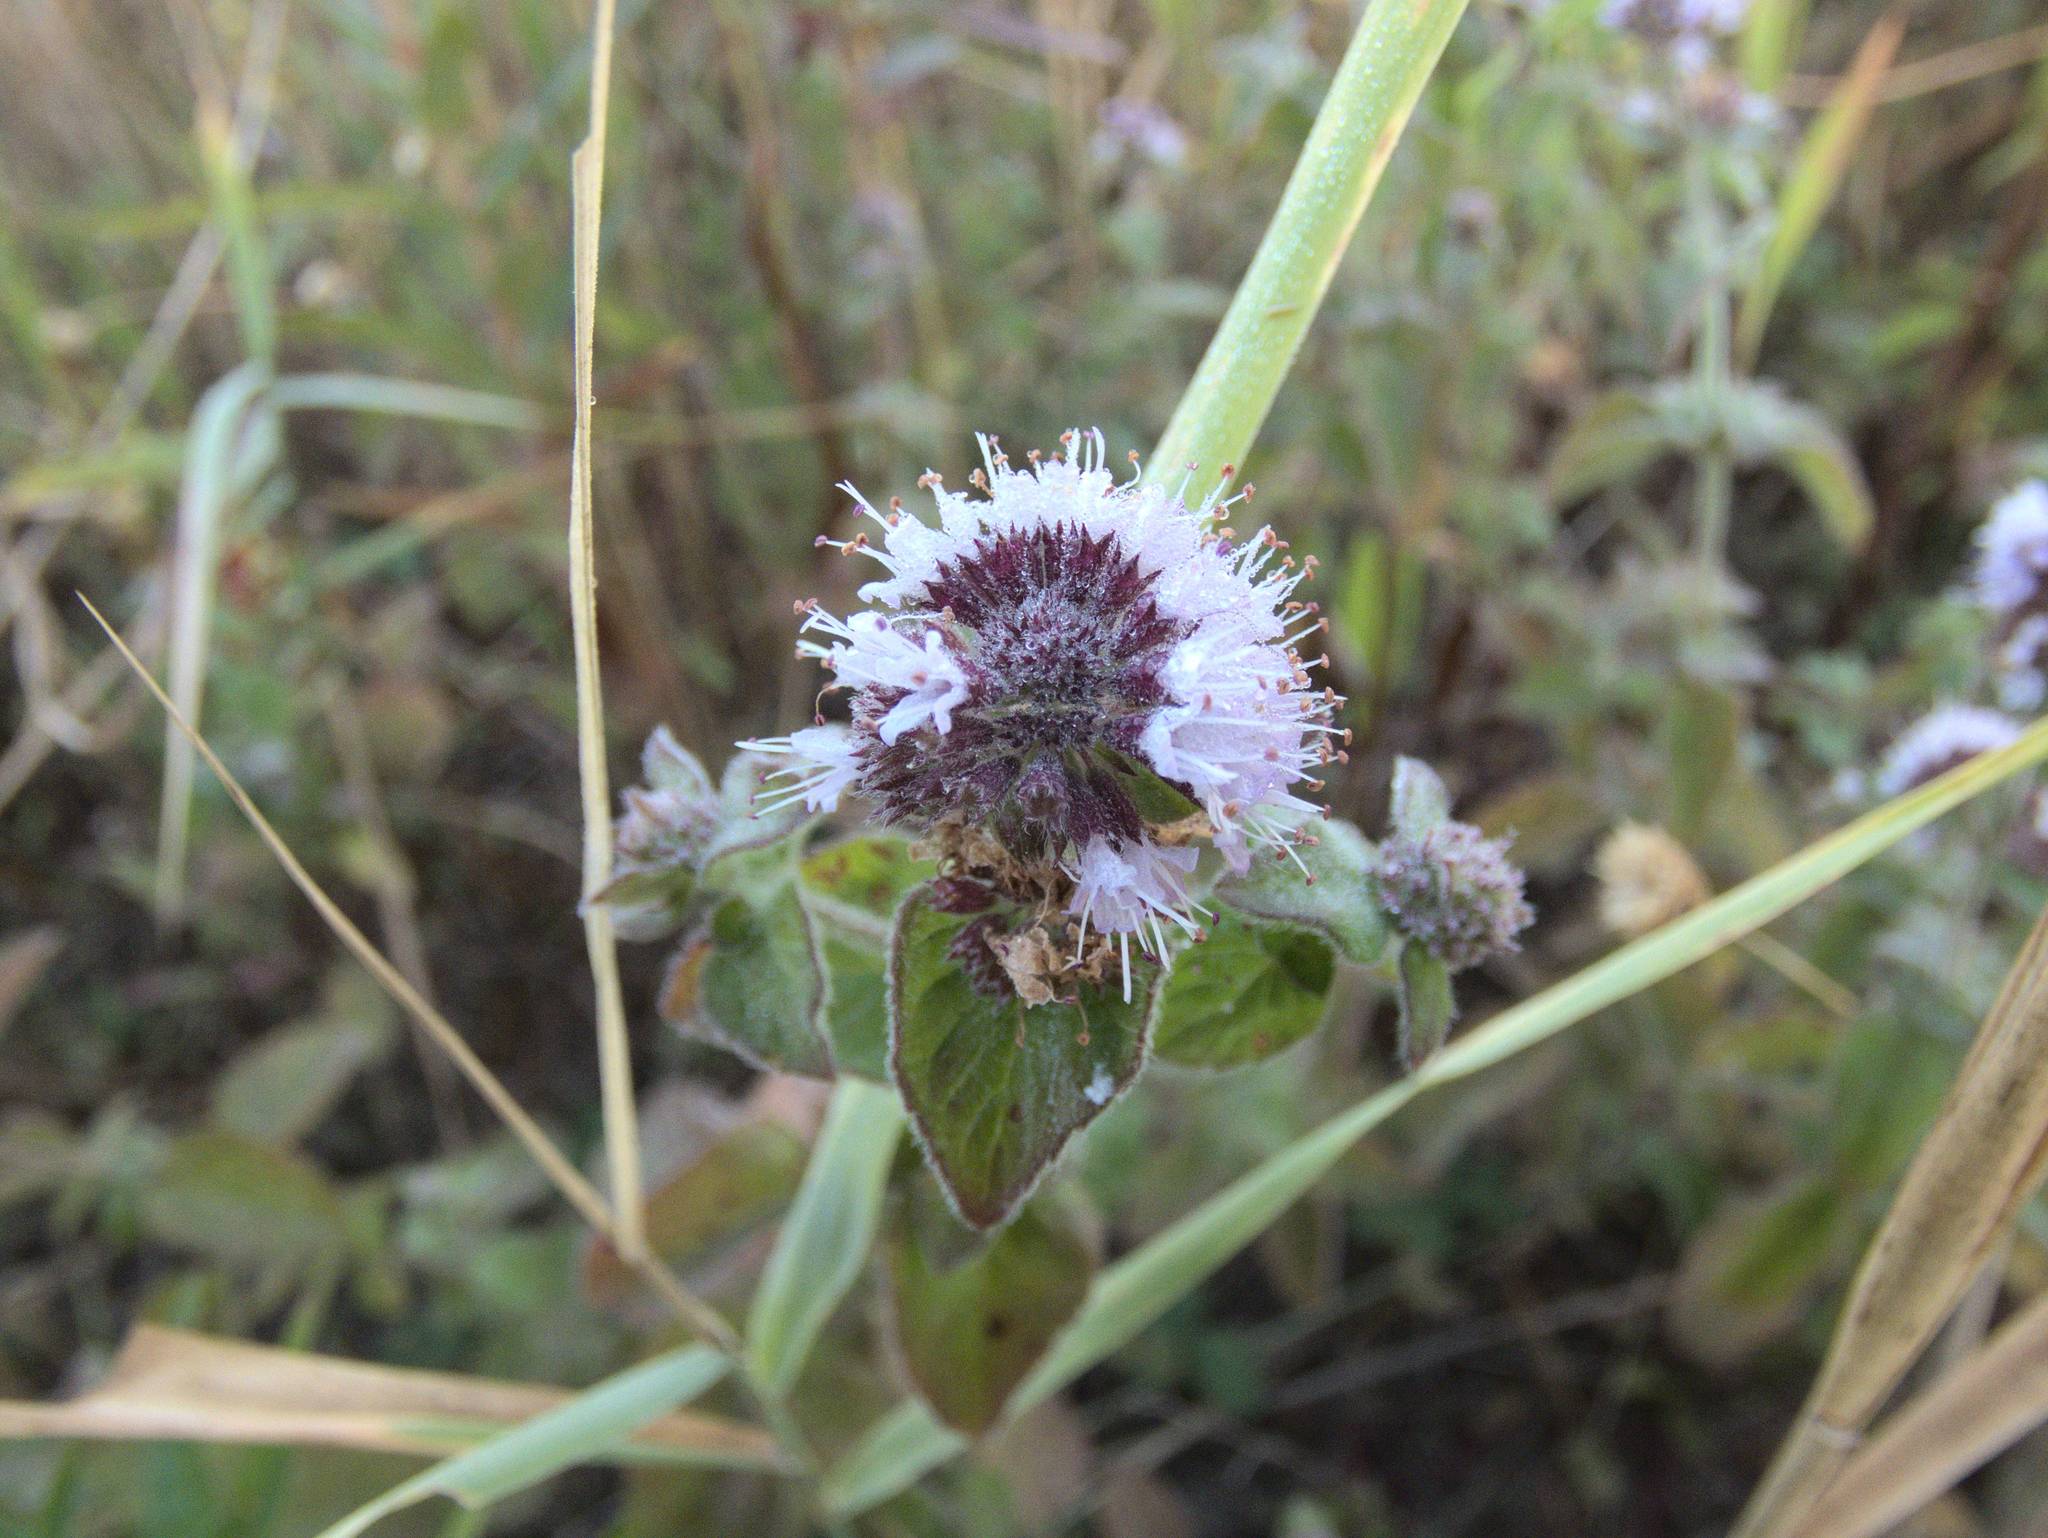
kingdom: Plantae
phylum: Tracheophyta
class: Magnoliopsida
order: Lamiales
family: Lamiaceae
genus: Mentha
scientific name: Mentha aquatica
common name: Water mint
